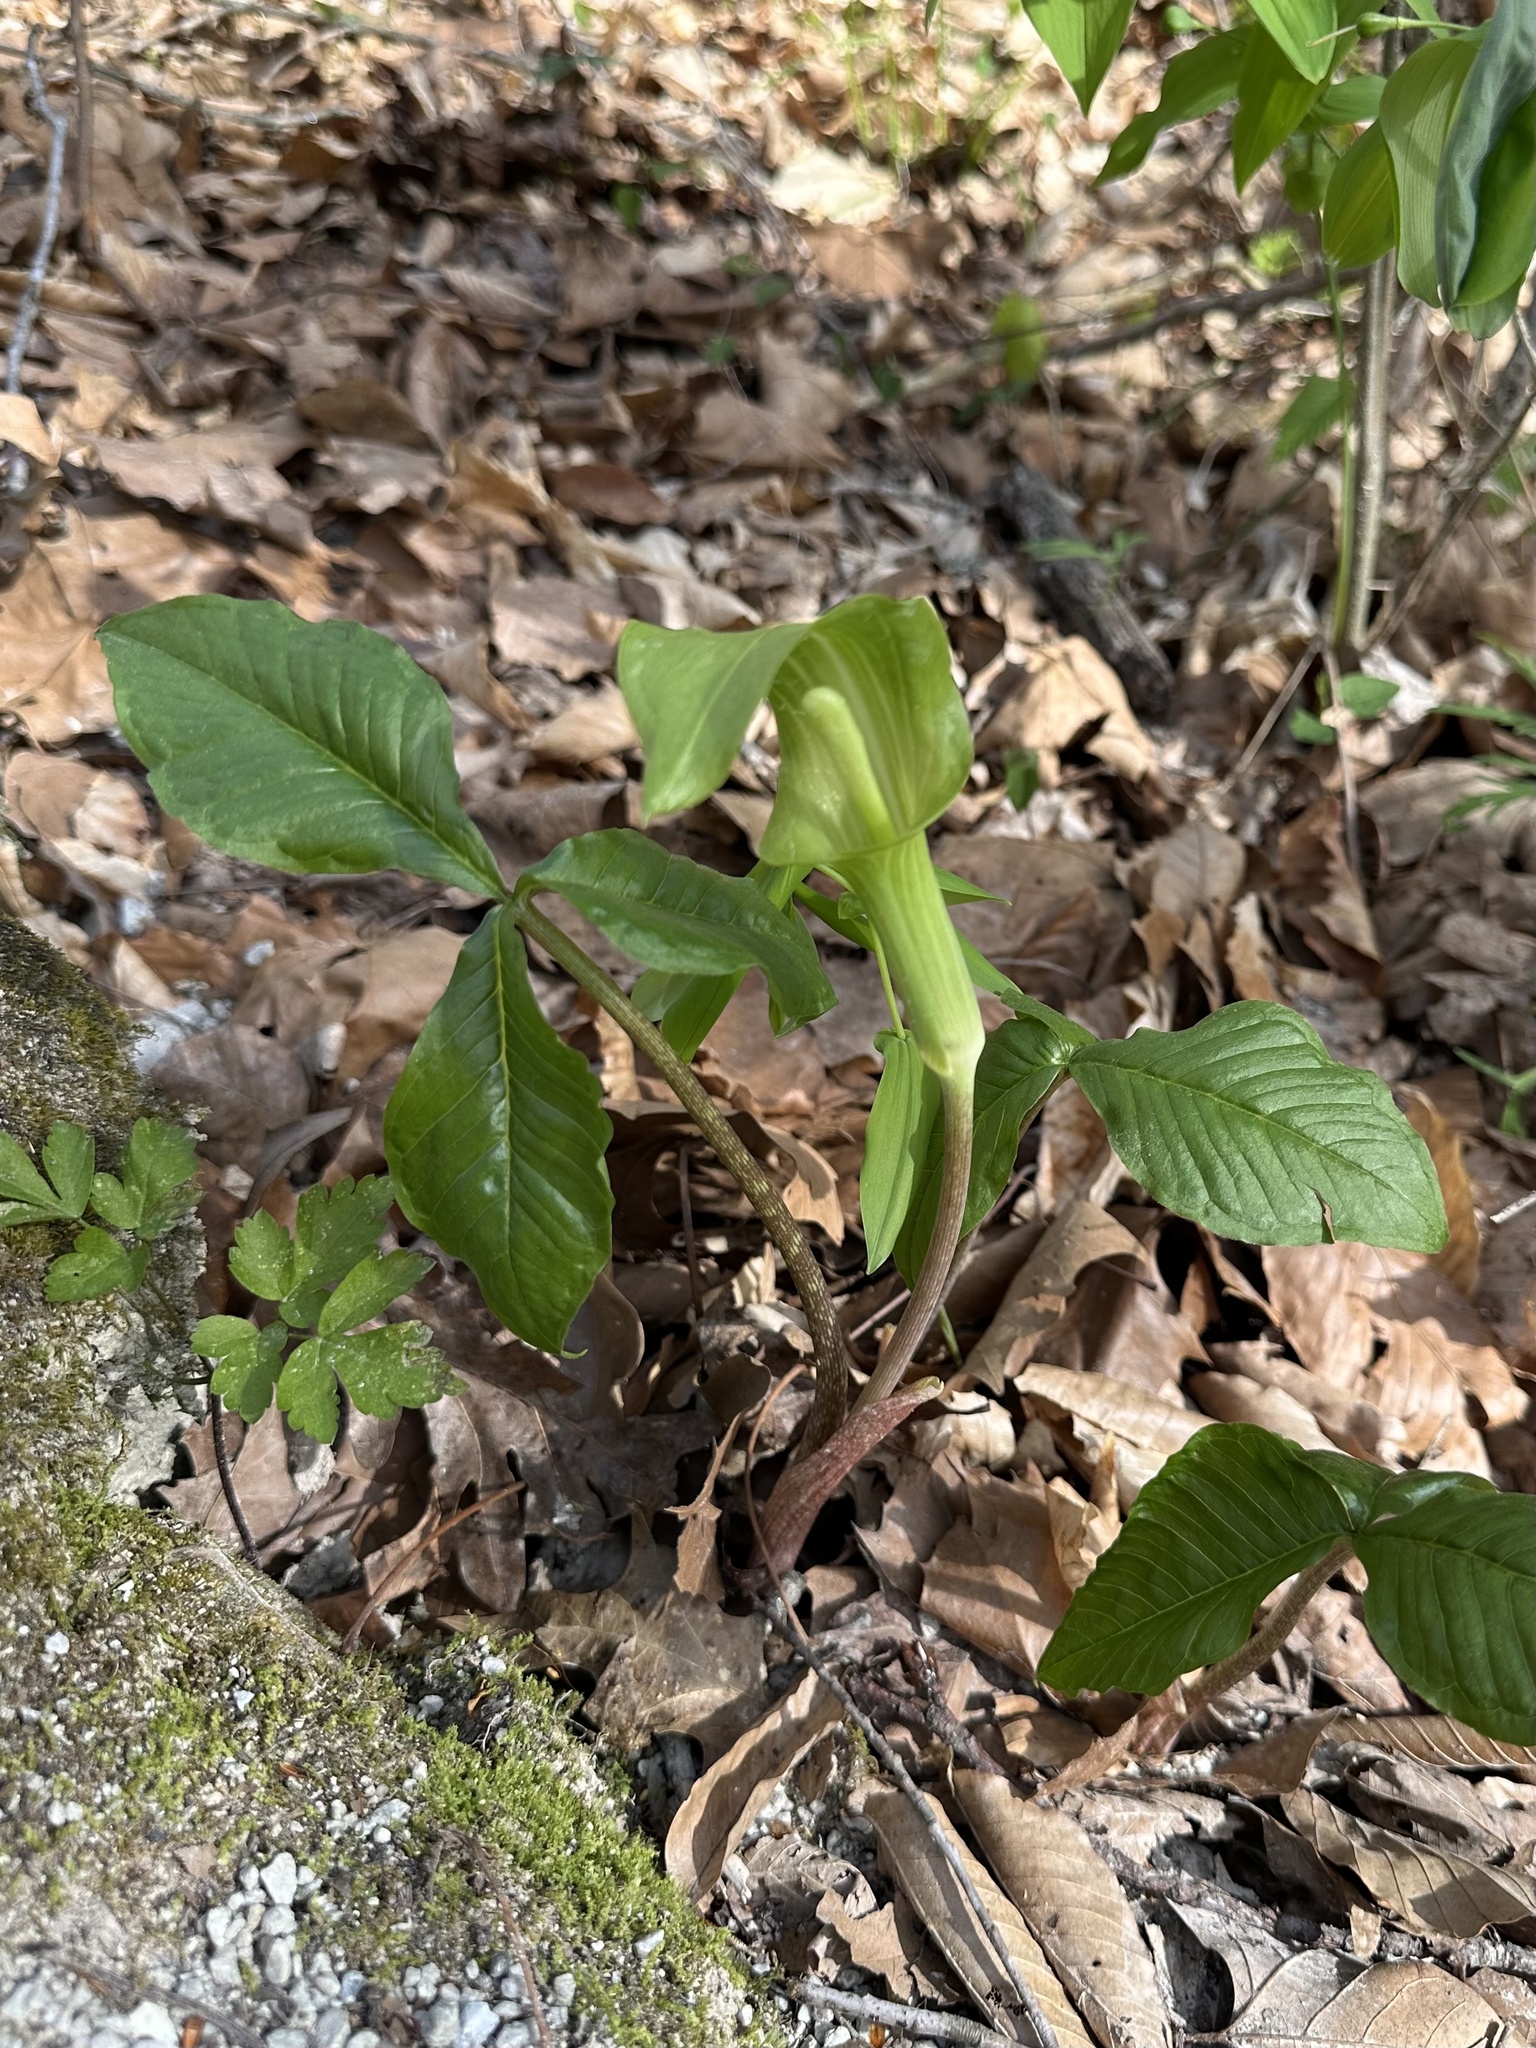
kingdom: Plantae
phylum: Tracheophyta
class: Liliopsida
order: Alismatales
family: Araceae
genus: Arisaema
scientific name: Arisaema triphyllum
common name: Jack-in-the-pulpit
